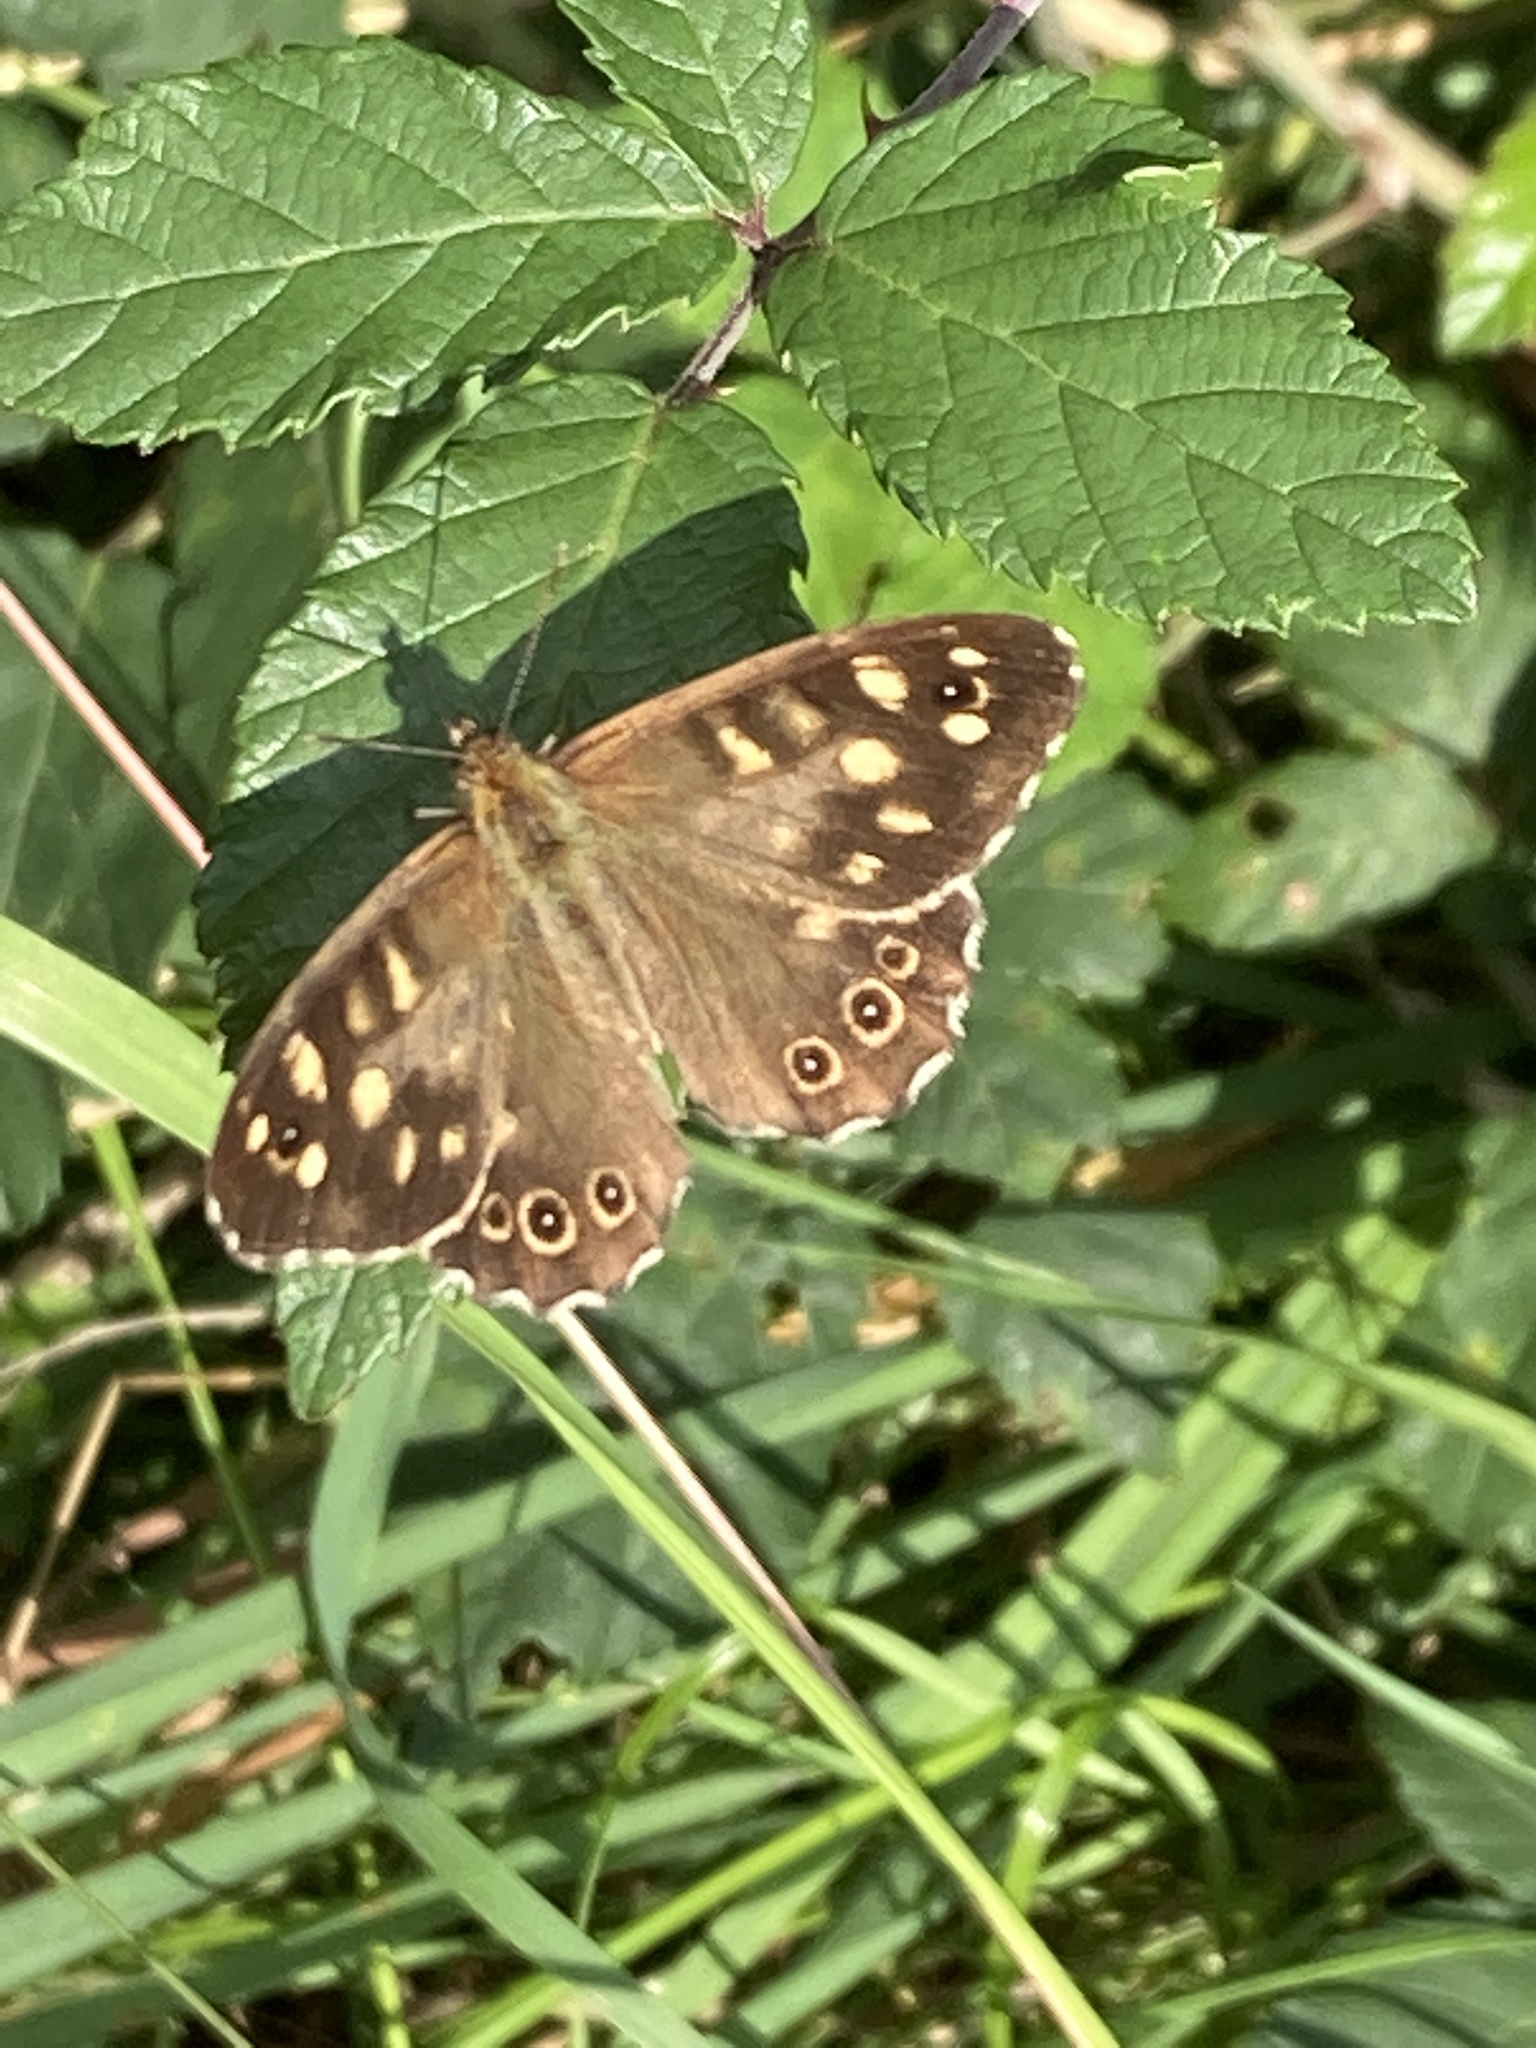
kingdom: Animalia
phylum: Arthropoda
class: Insecta
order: Lepidoptera
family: Nymphalidae
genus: Pararge
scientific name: Pararge aegeria
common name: Speckled wood
